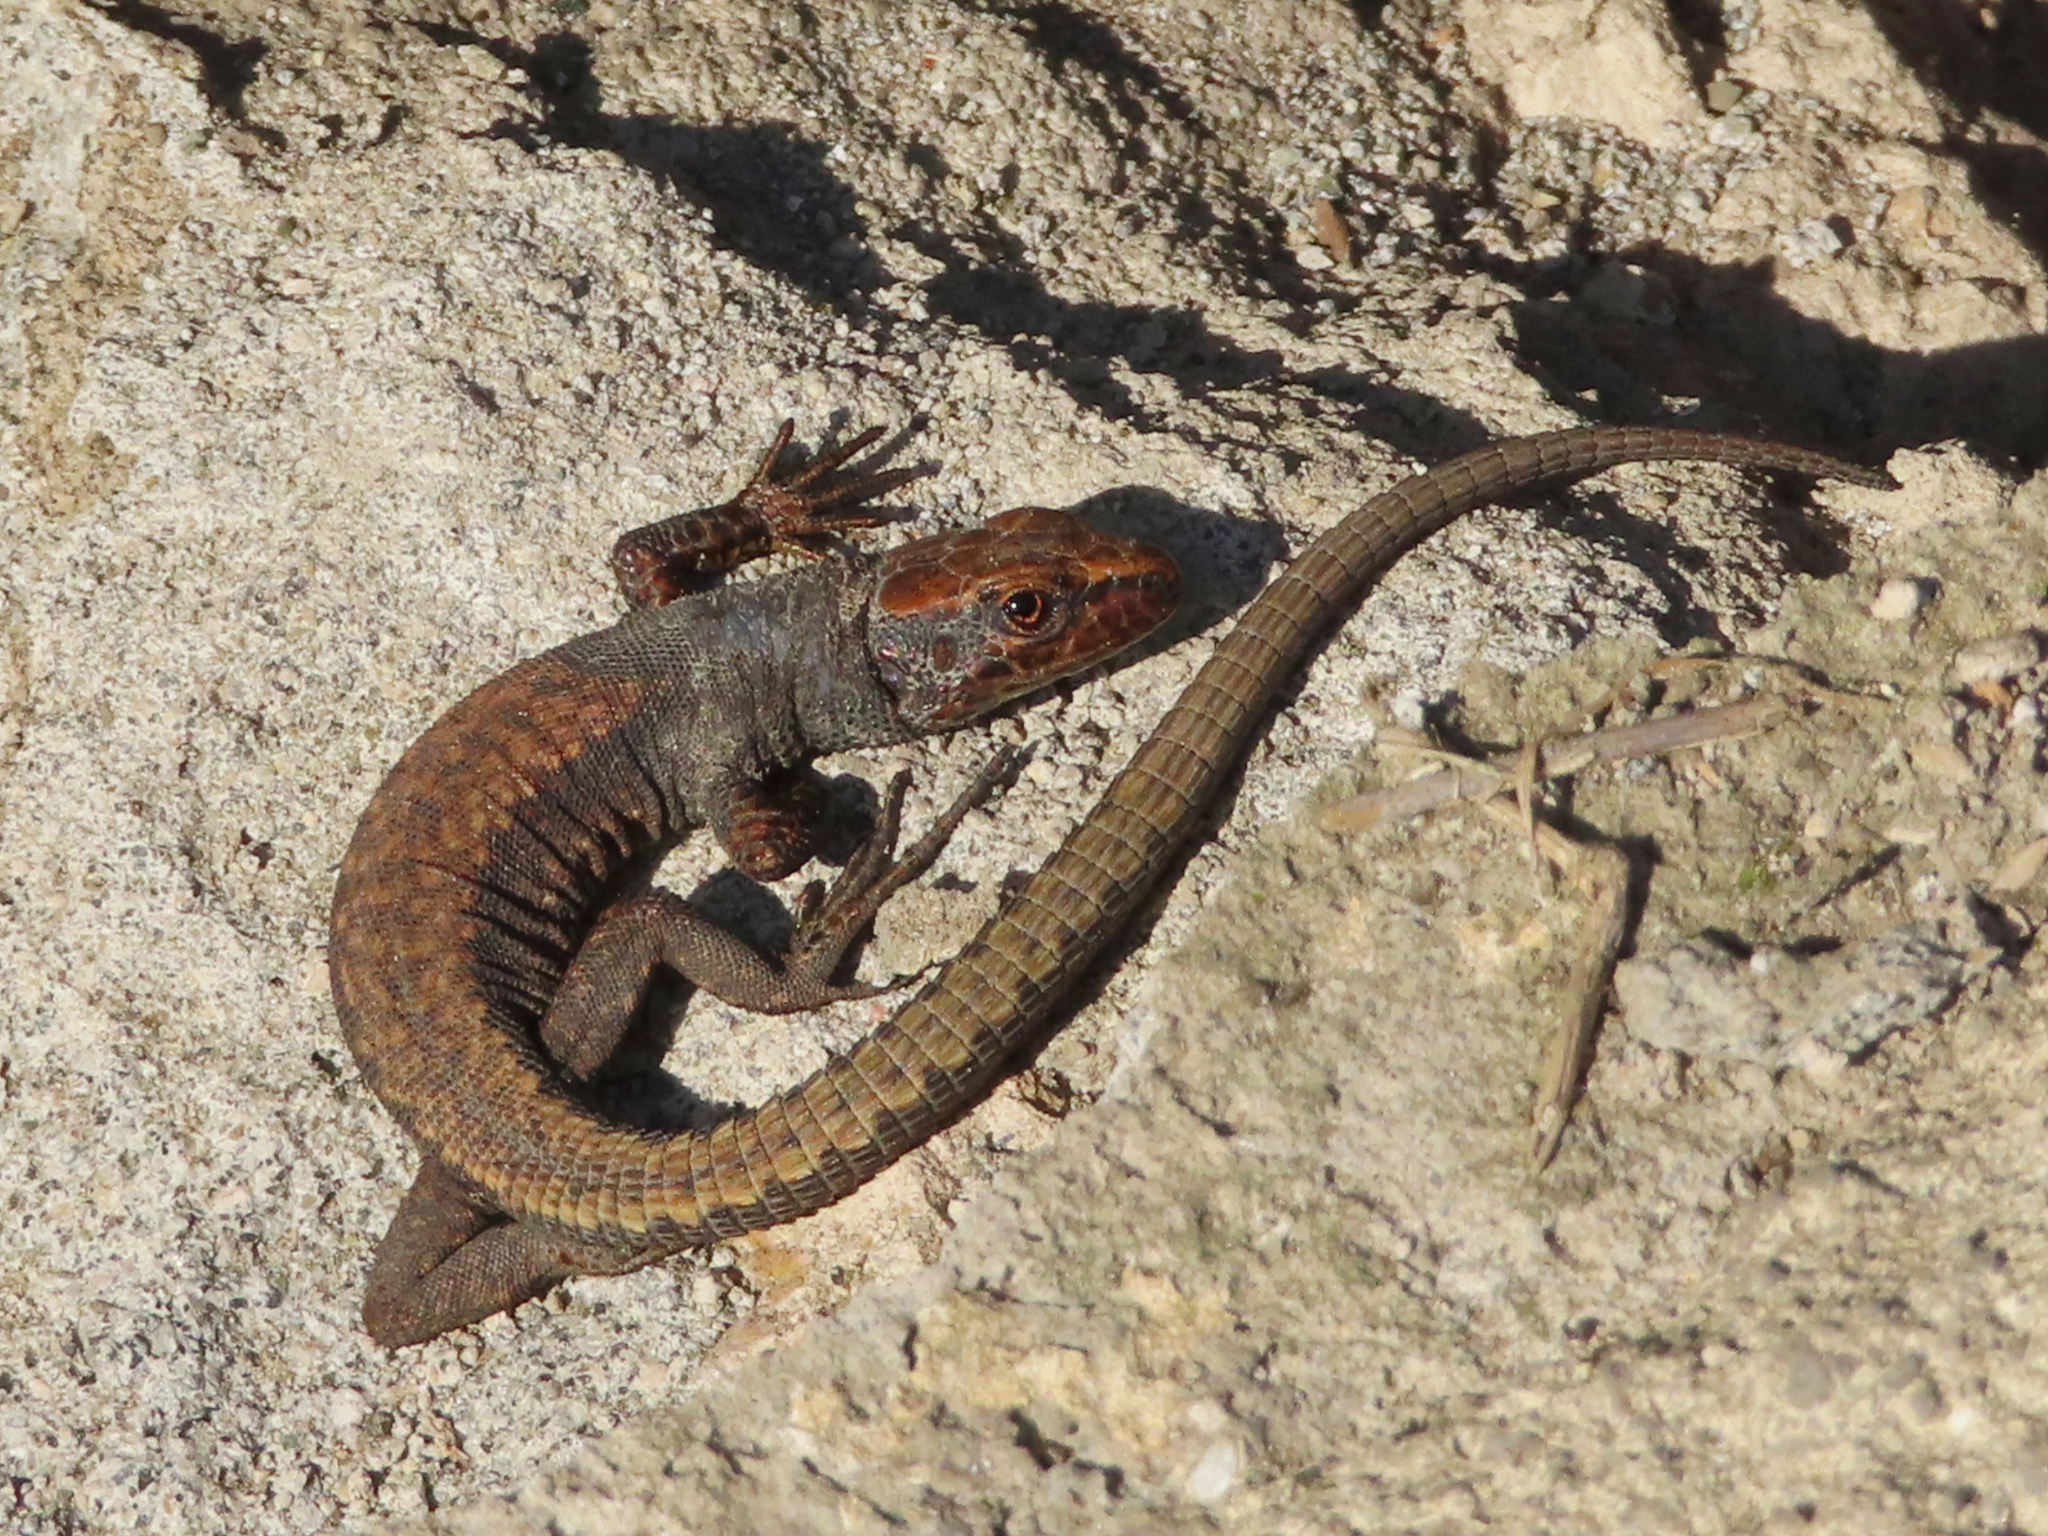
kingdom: Animalia
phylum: Chordata
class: Squamata
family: Lacertidae
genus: Darevskia
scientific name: Darevskia derjugini
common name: Derjugin's lizard
